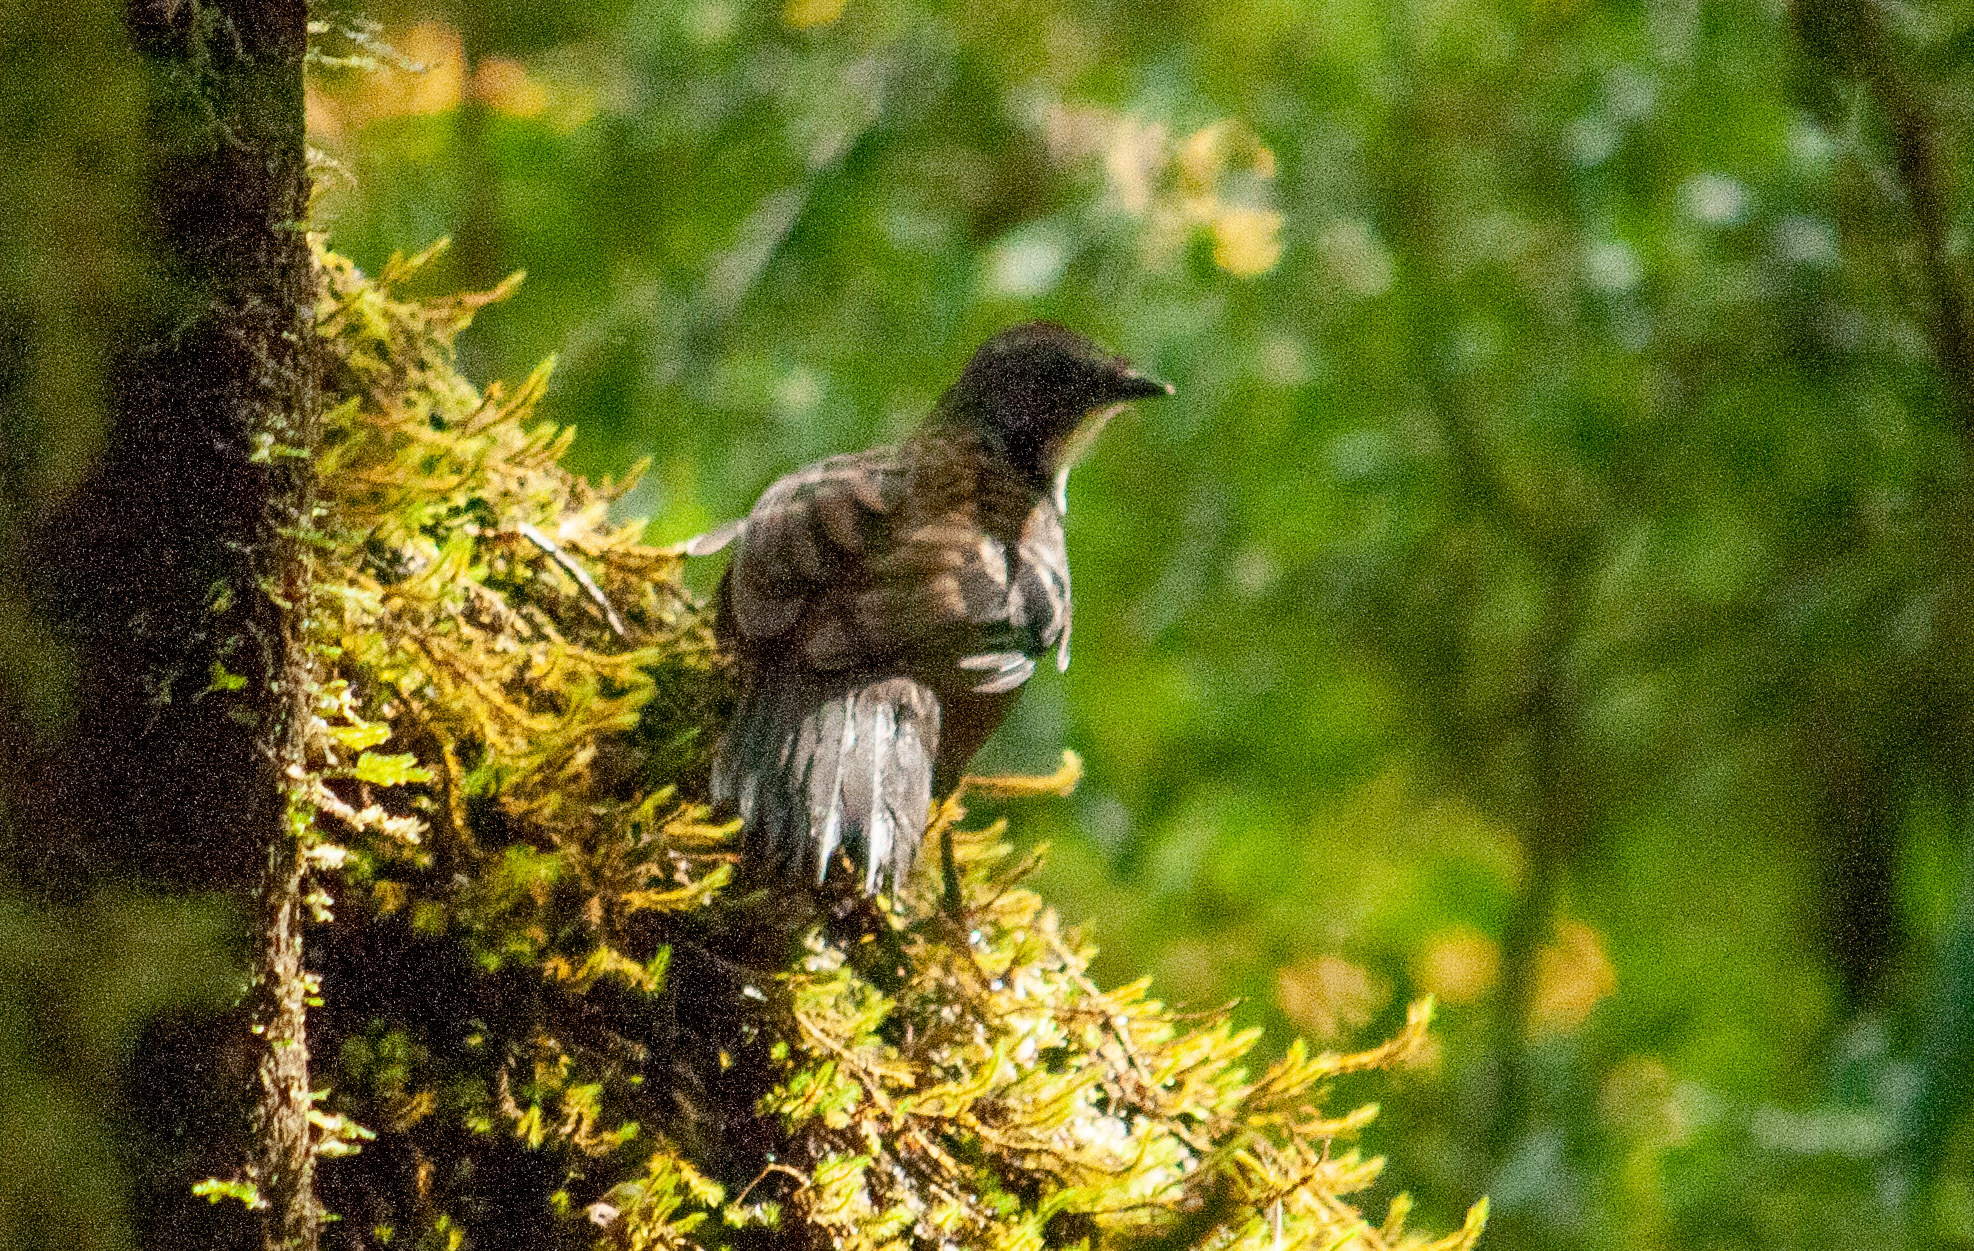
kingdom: Animalia
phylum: Chordata
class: Aves
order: Passeriformes
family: Orthonychidae
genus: Orthonyx
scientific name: Orthonyx temminckii
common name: Australian logrunner
